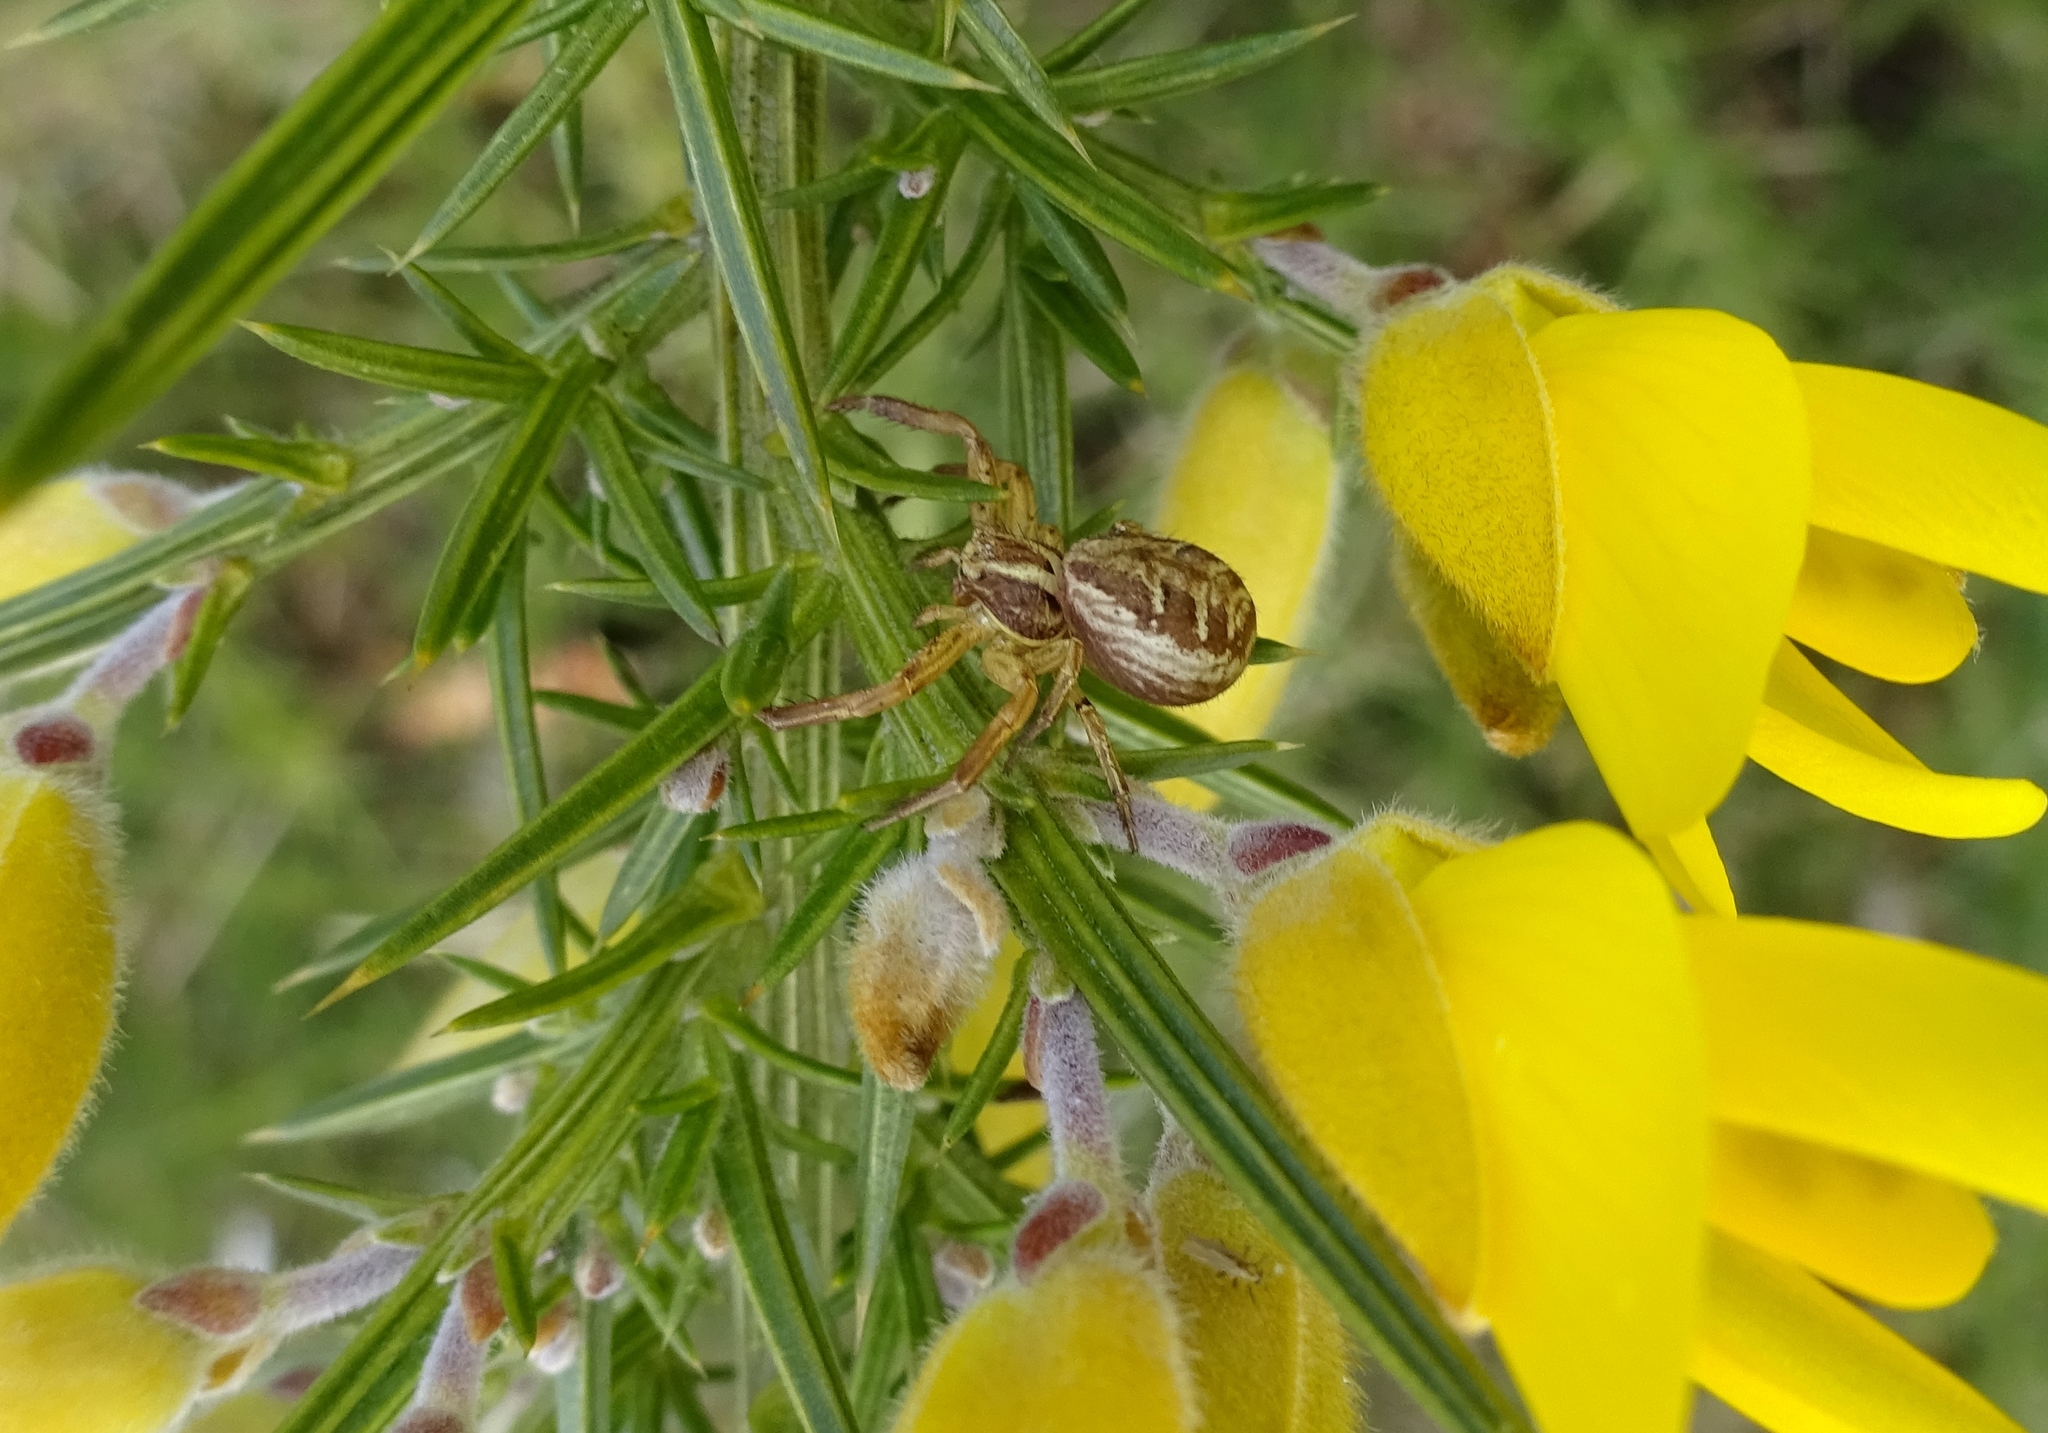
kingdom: Animalia
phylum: Arthropoda
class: Arachnida
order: Araneae
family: Thomisidae
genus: Xysticus
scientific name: Xysticus
